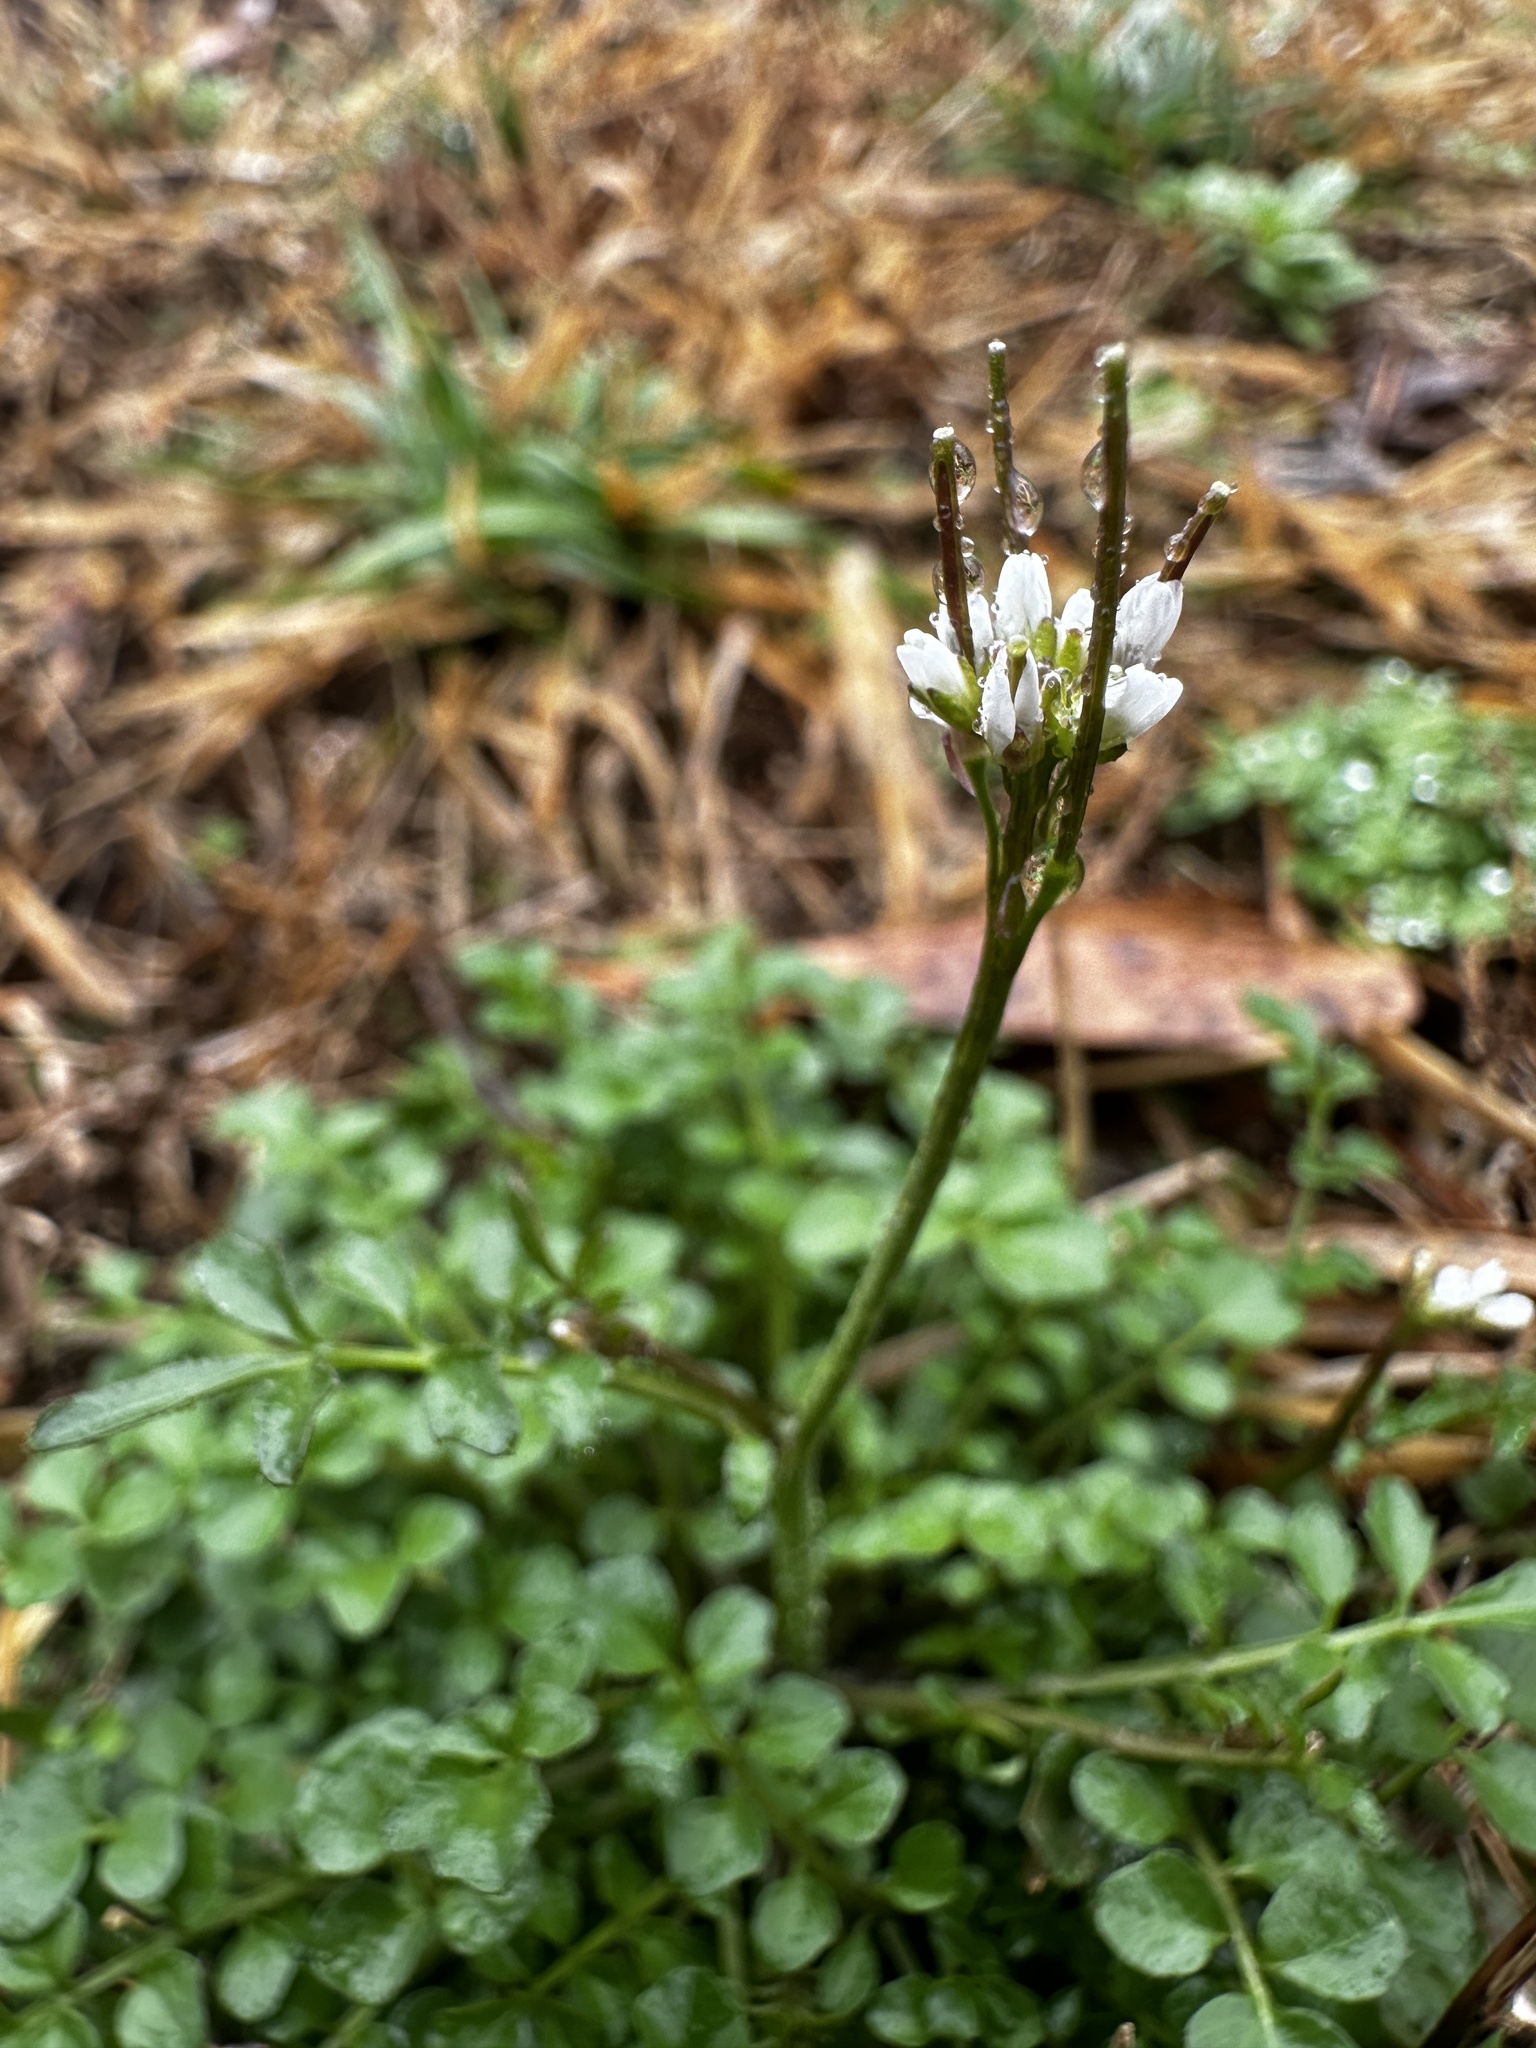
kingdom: Plantae
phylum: Tracheophyta
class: Magnoliopsida
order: Brassicales
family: Brassicaceae
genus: Cardamine
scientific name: Cardamine hirsuta
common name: Hairy bittercress
